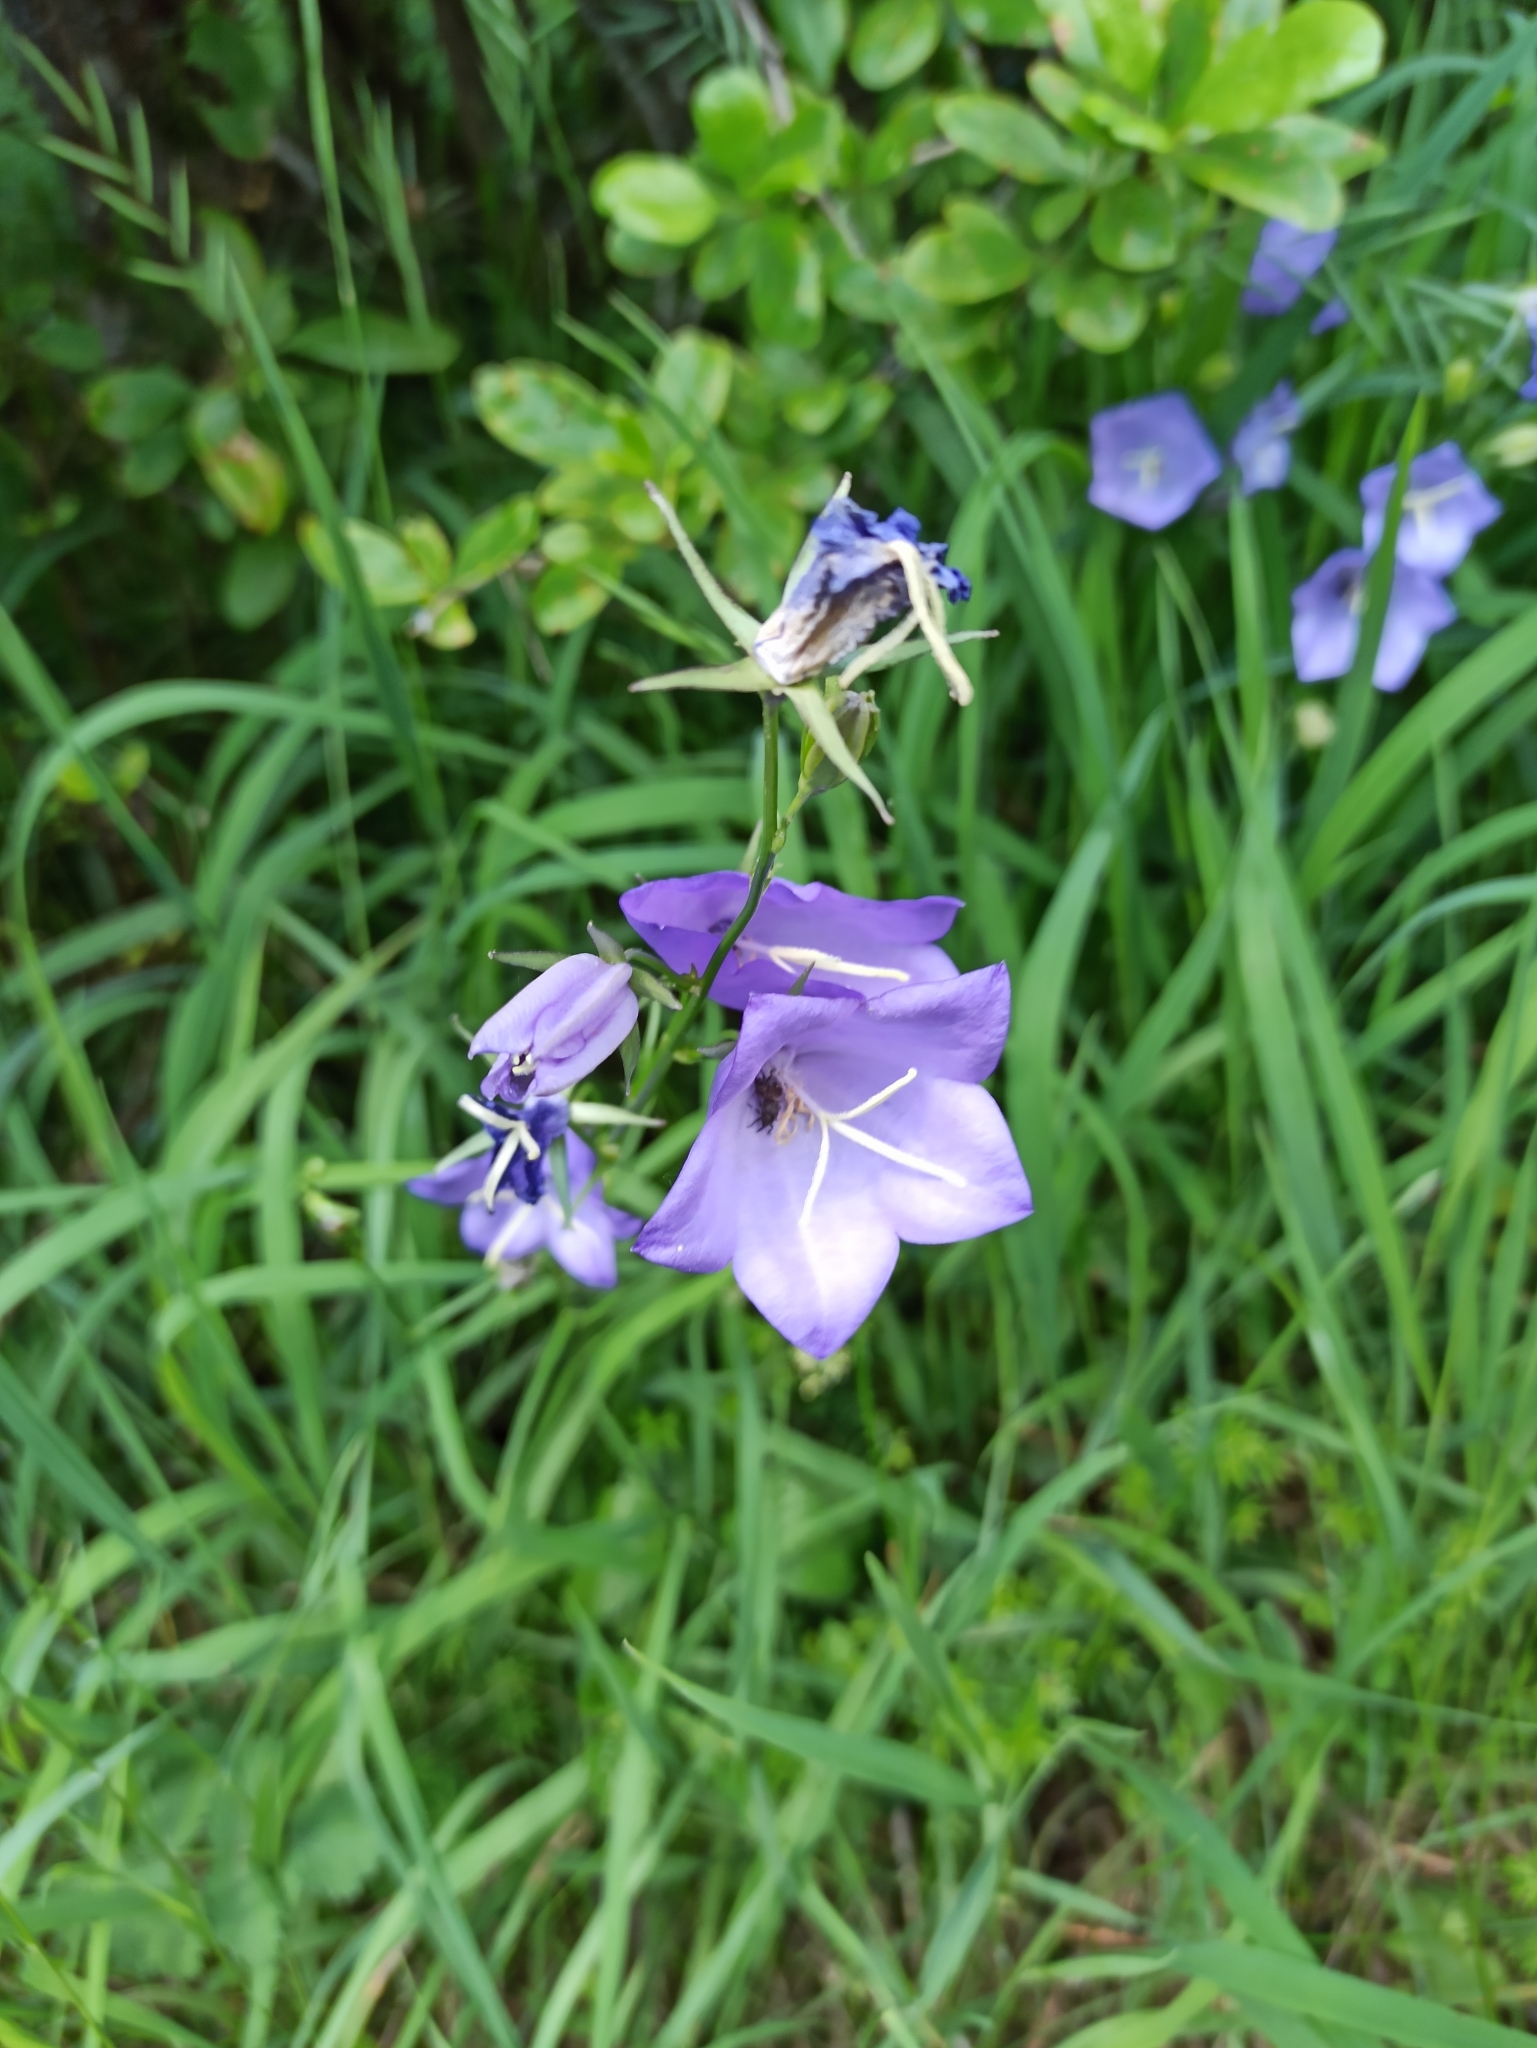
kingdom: Plantae
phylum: Tracheophyta
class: Magnoliopsida
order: Asterales
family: Campanulaceae
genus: Campanula
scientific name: Campanula persicifolia
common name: Peach-leaved bellflower
